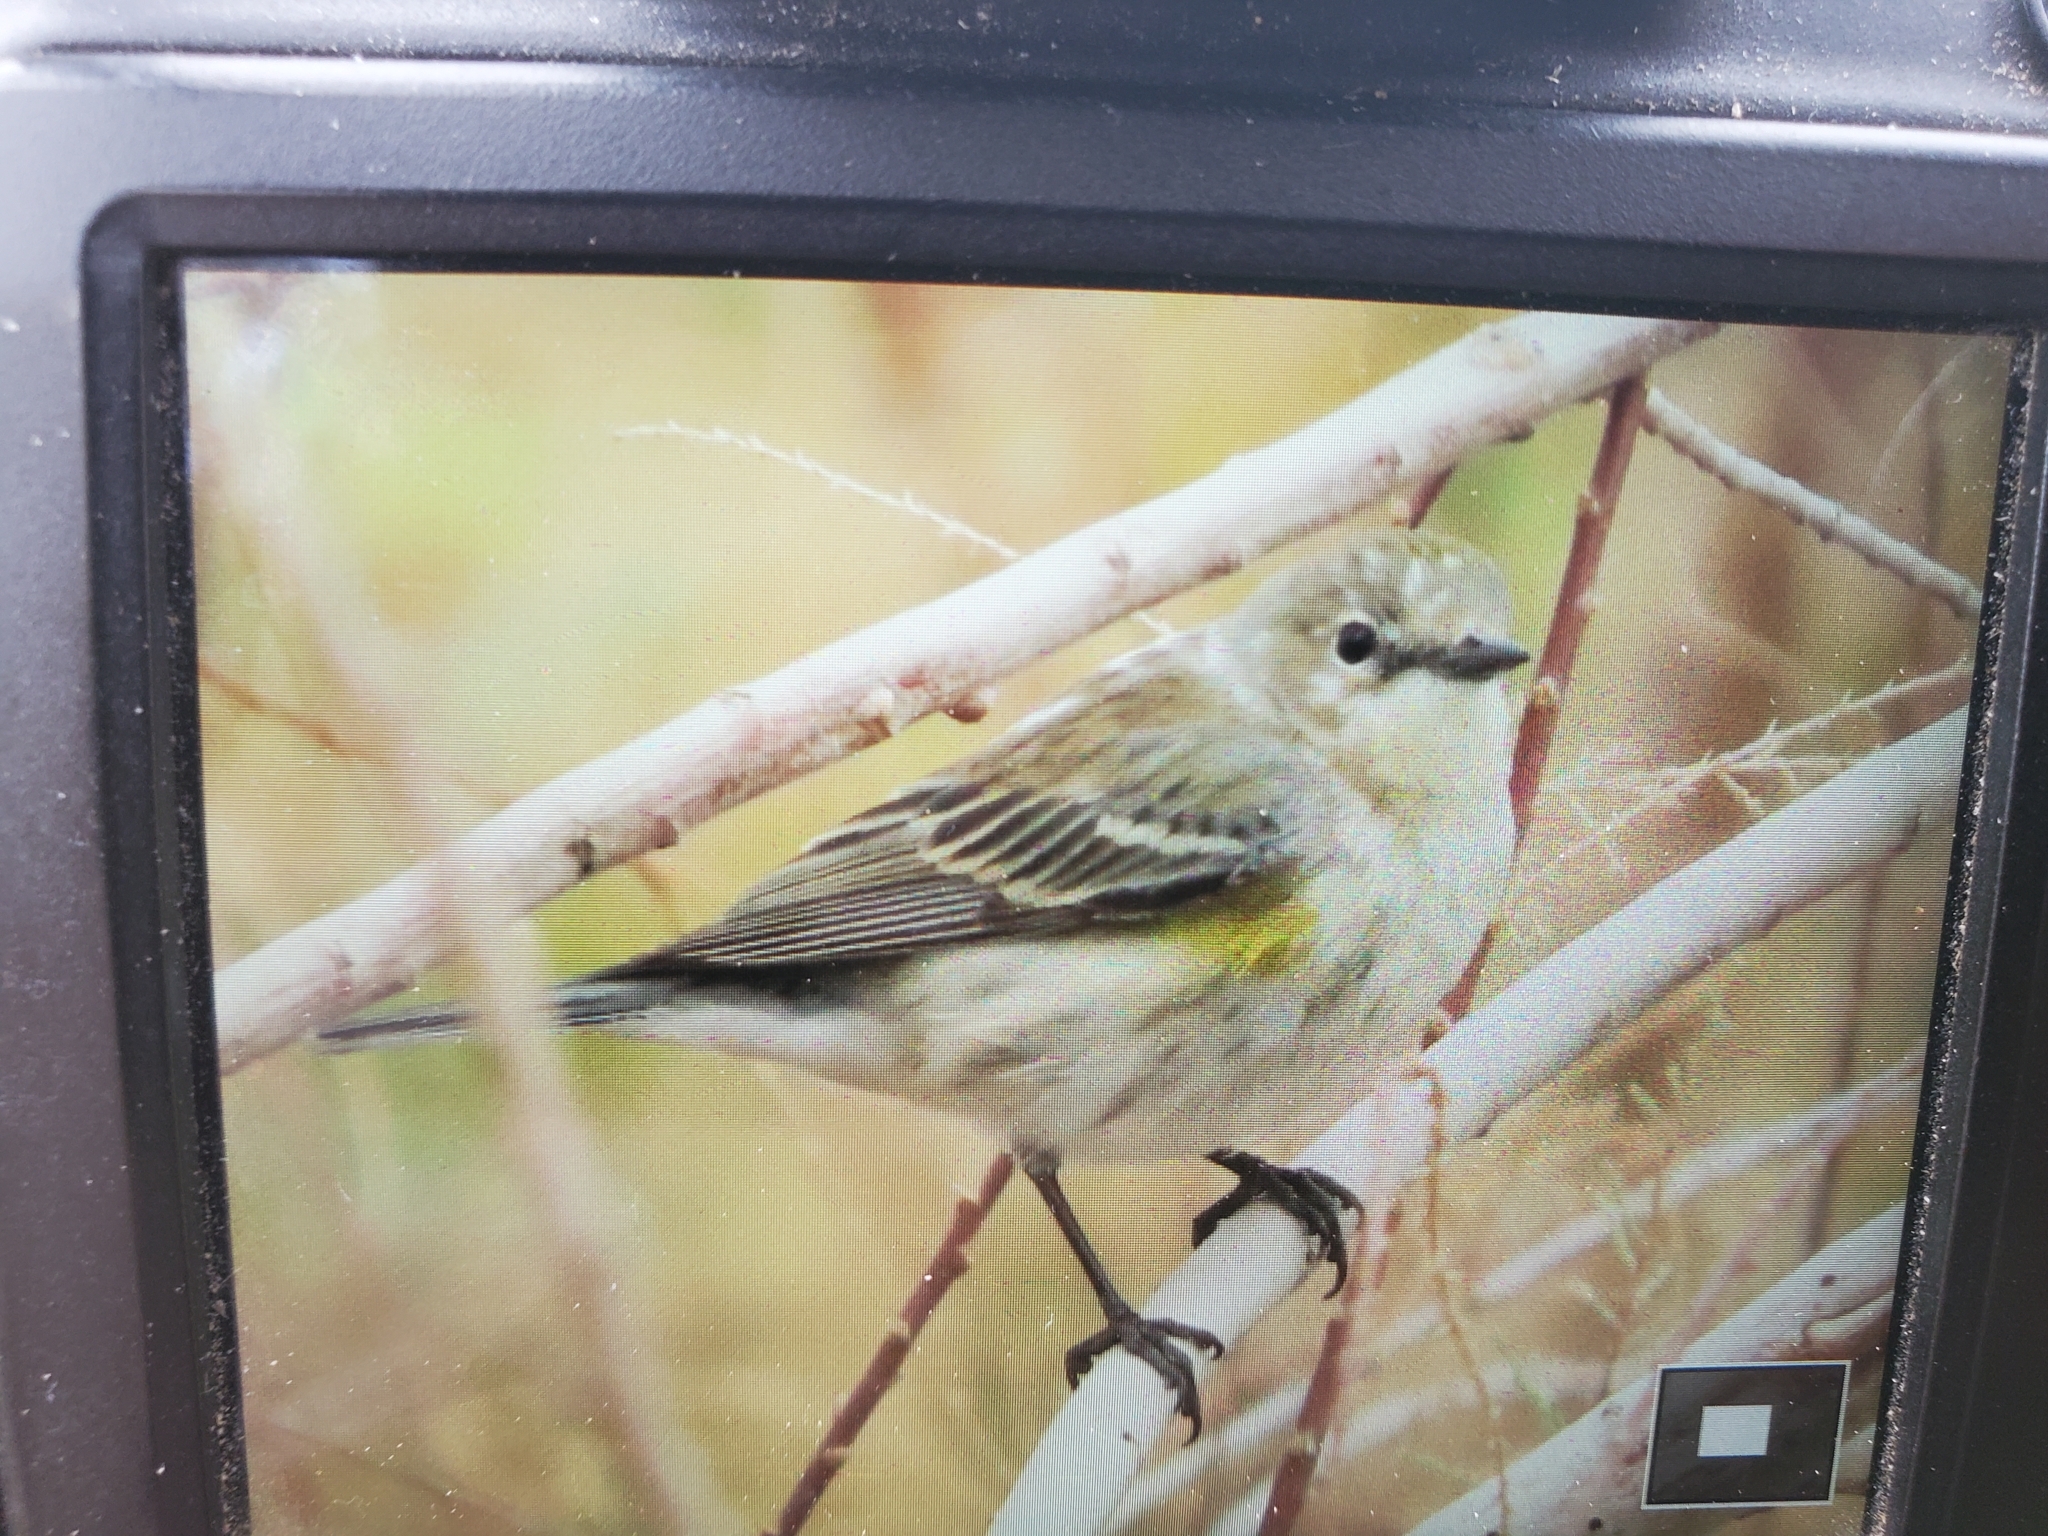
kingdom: Animalia
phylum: Chordata
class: Aves
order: Passeriformes
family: Parulidae
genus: Setophaga
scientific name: Setophaga auduboni
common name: Audubon's warbler
